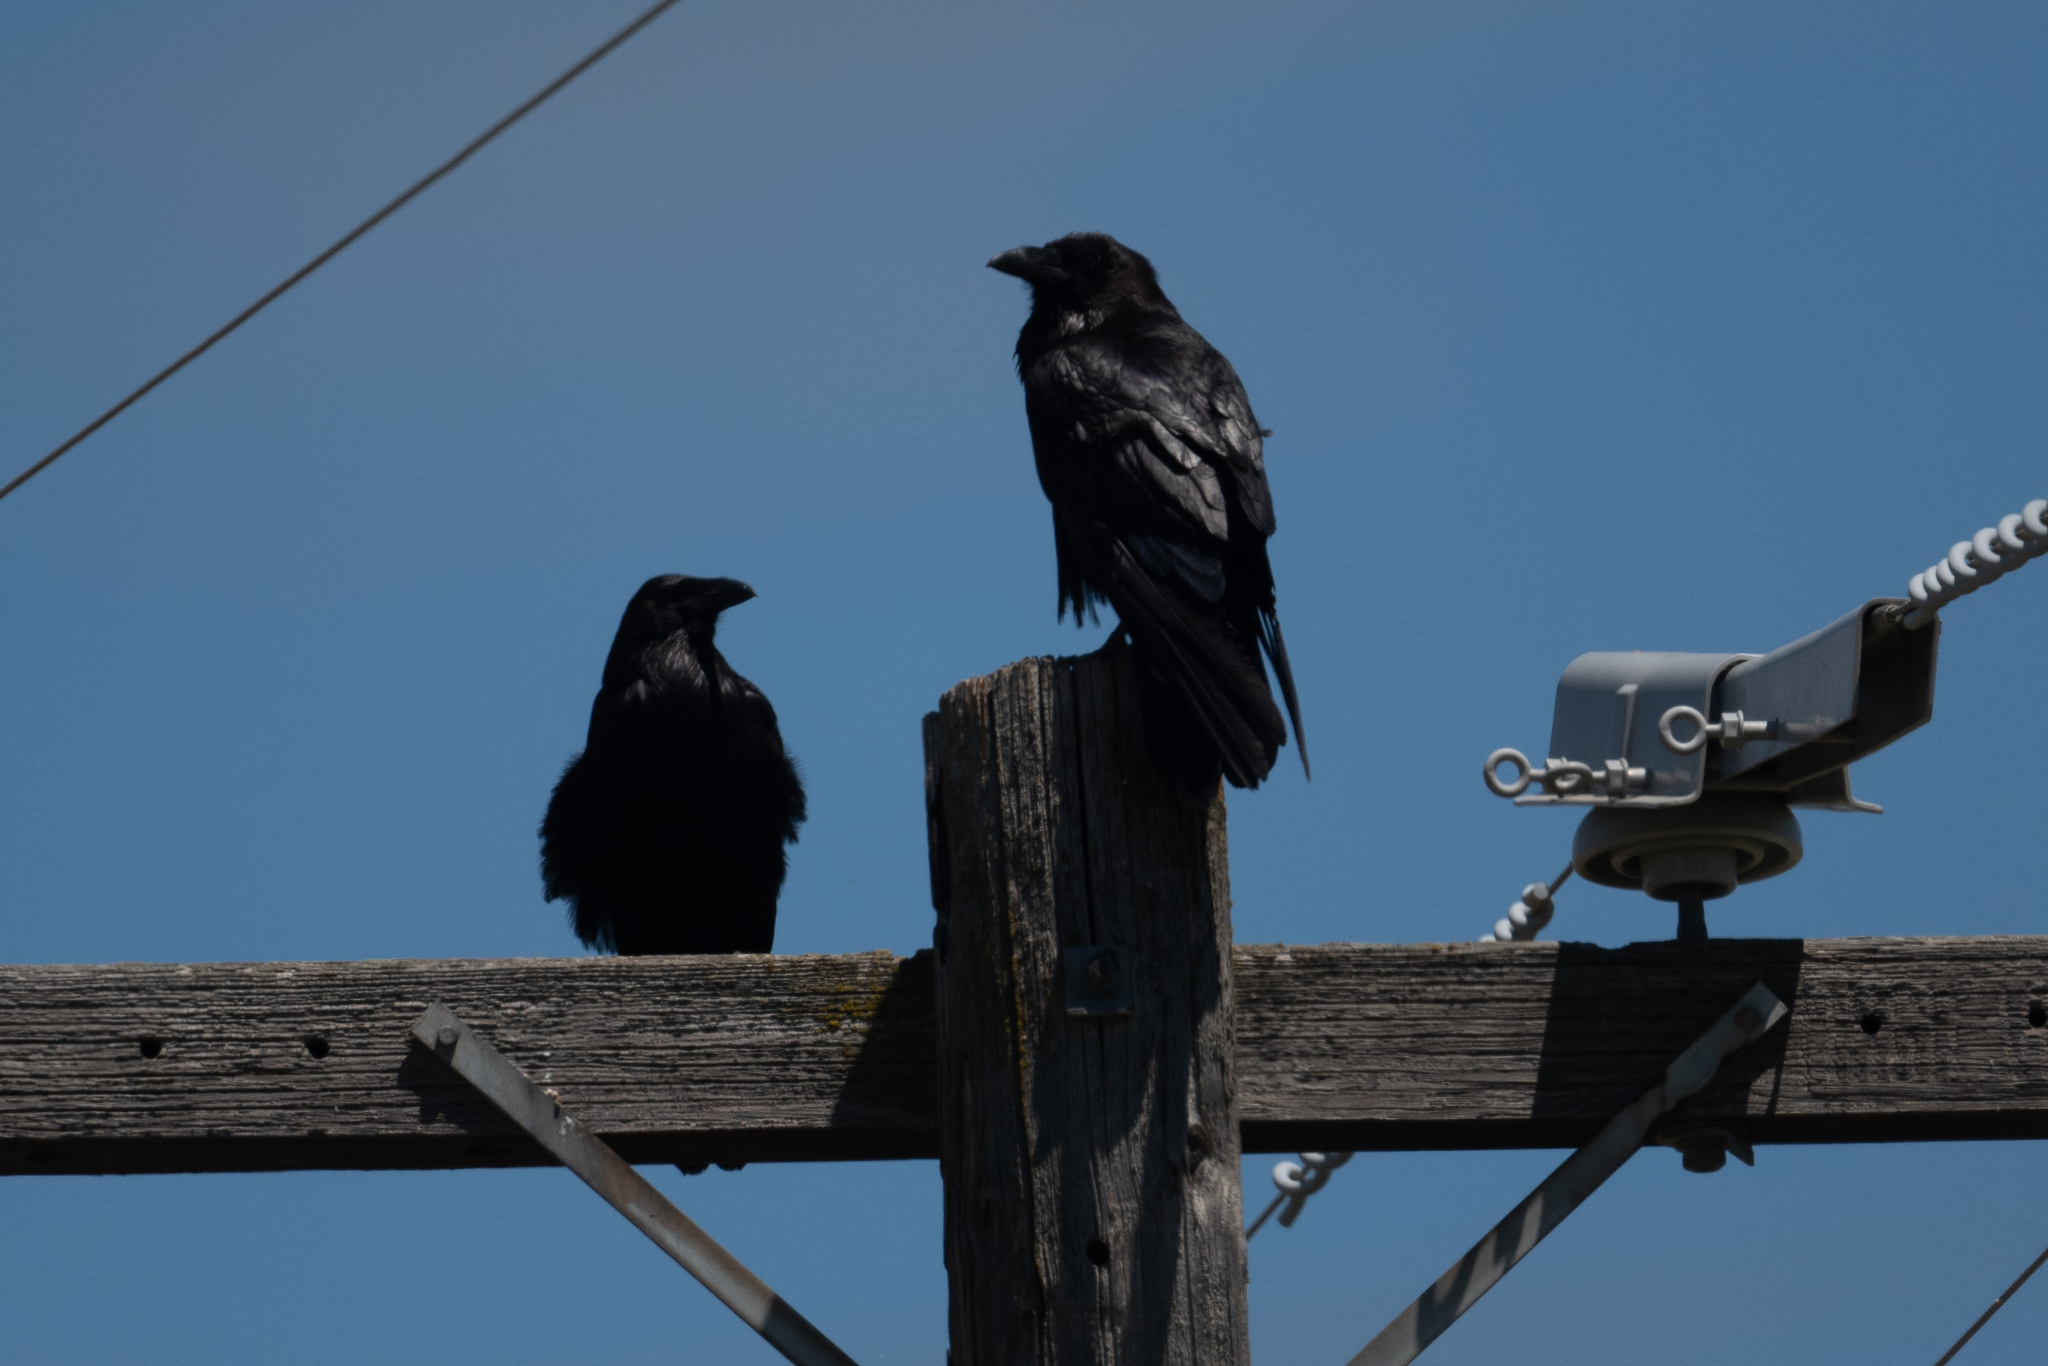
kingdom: Animalia
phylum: Chordata
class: Aves
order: Passeriformes
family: Corvidae
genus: Corvus
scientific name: Corvus corax
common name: Common raven
